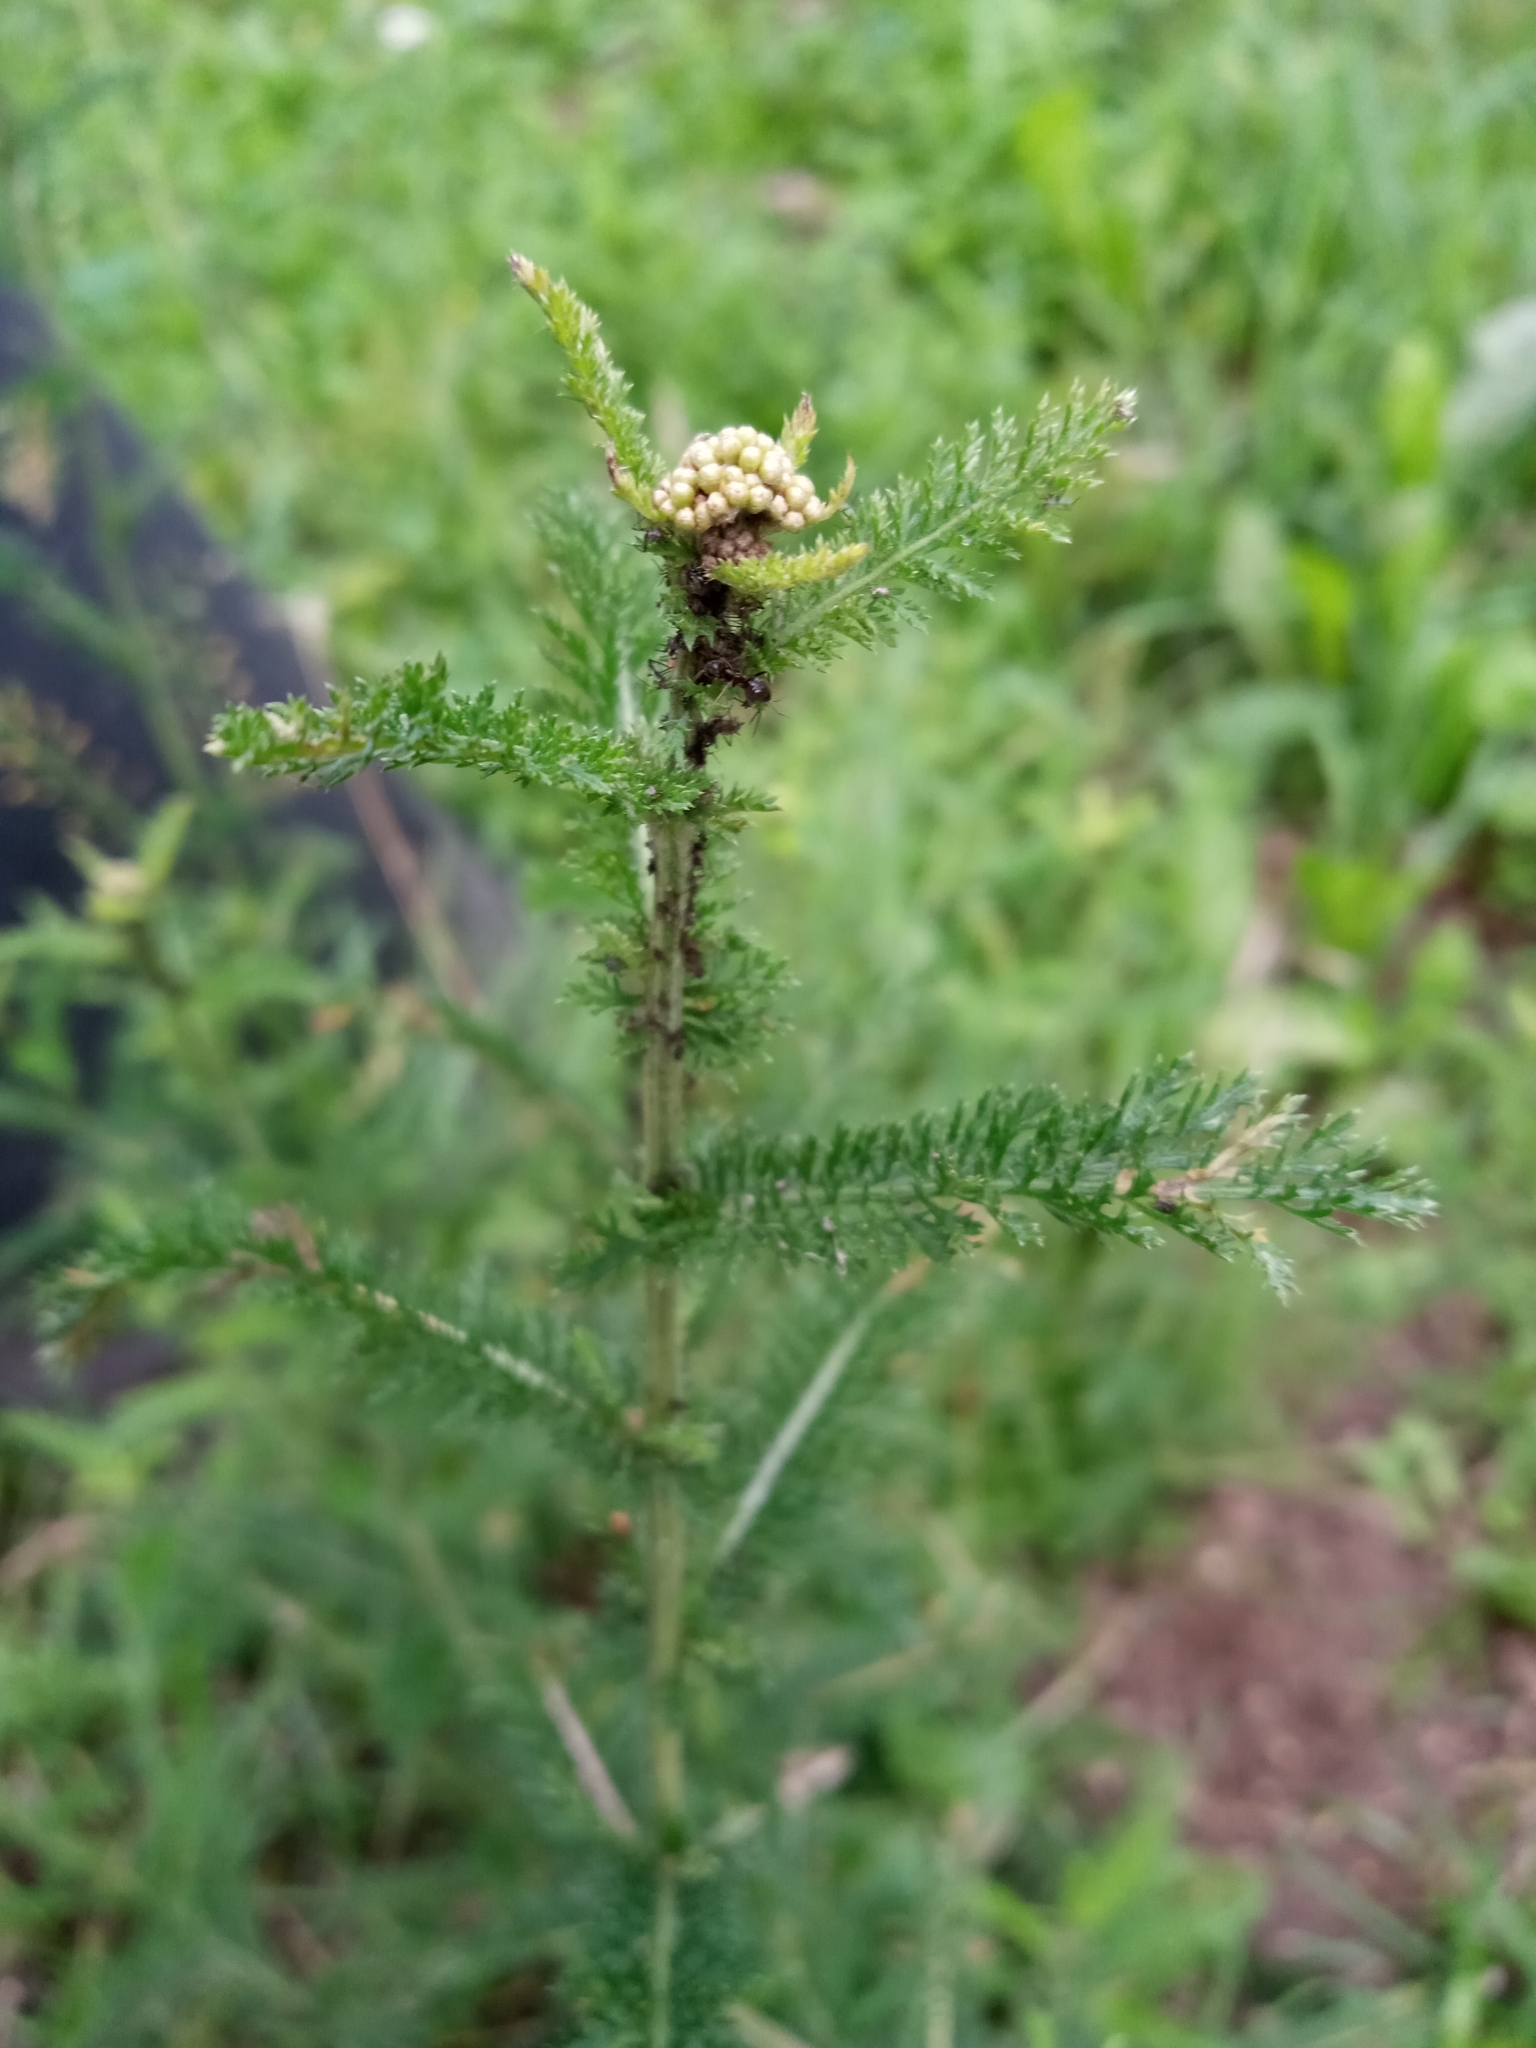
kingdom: Plantae
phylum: Tracheophyta
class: Magnoliopsida
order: Asterales
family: Asteraceae
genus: Achillea
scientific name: Achillea millefolium
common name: Yarrow
